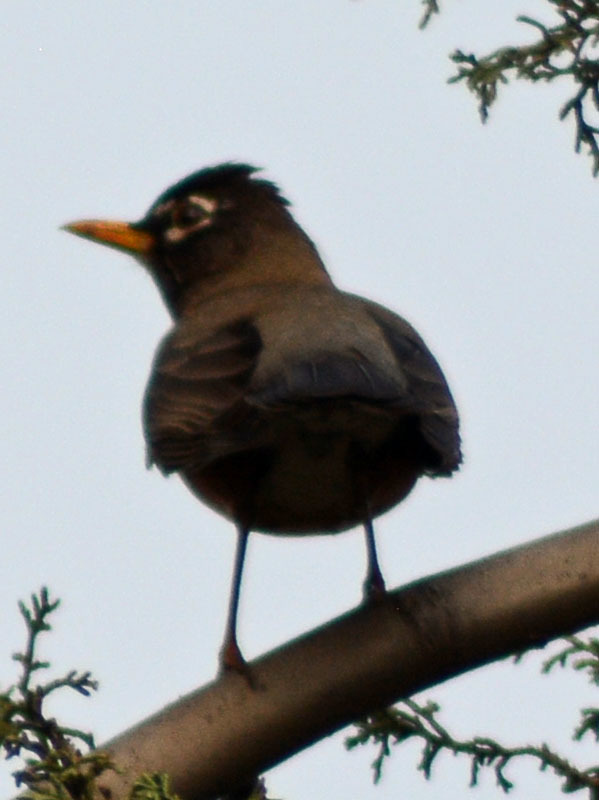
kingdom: Animalia
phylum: Chordata
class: Aves
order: Passeriformes
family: Turdidae
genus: Turdus
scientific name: Turdus migratorius
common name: American robin
